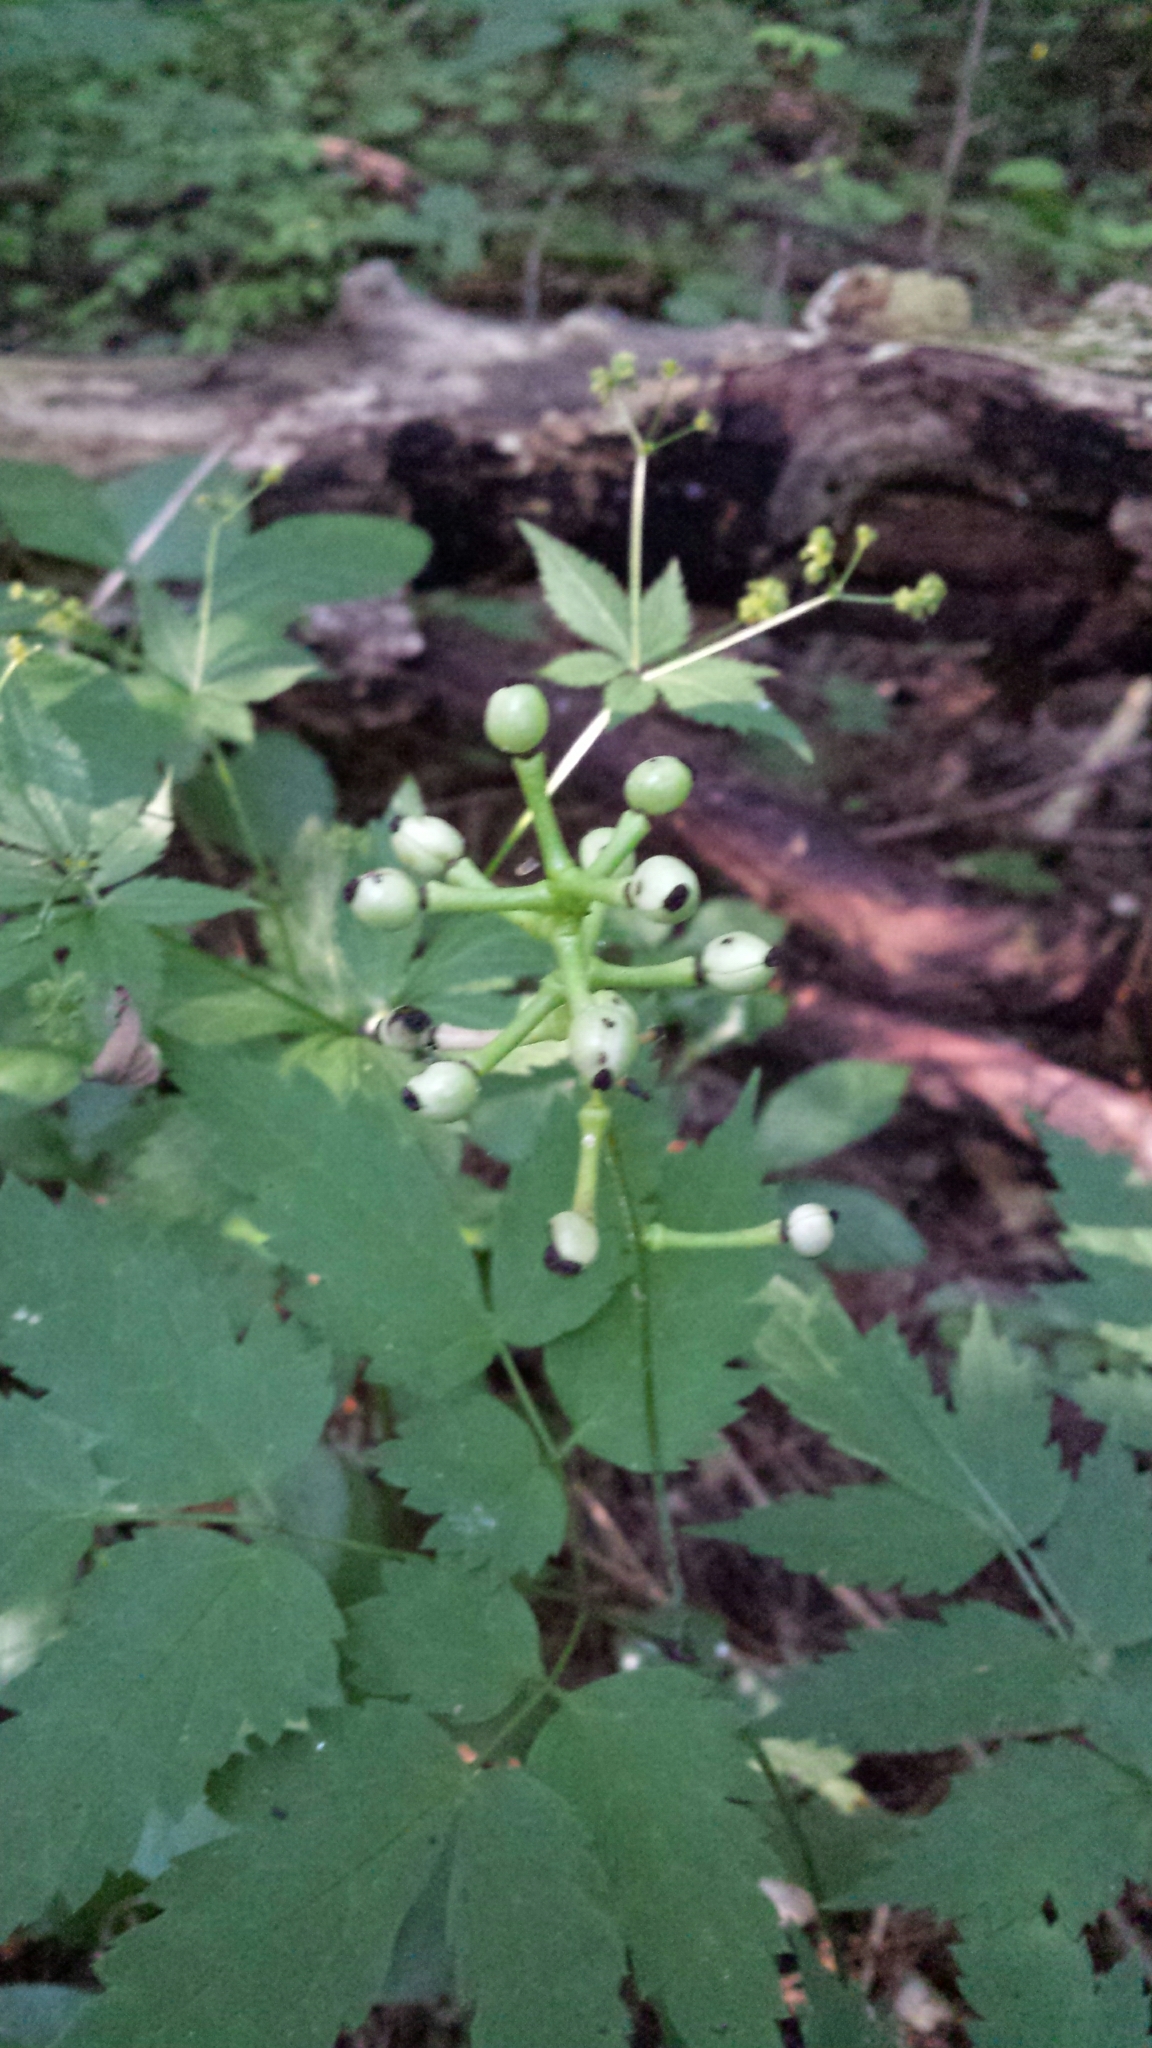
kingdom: Plantae
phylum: Tracheophyta
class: Magnoliopsida
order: Ranunculales
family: Ranunculaceae
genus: Actaea
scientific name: Actaea pachypoda
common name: Doll's-eyes
